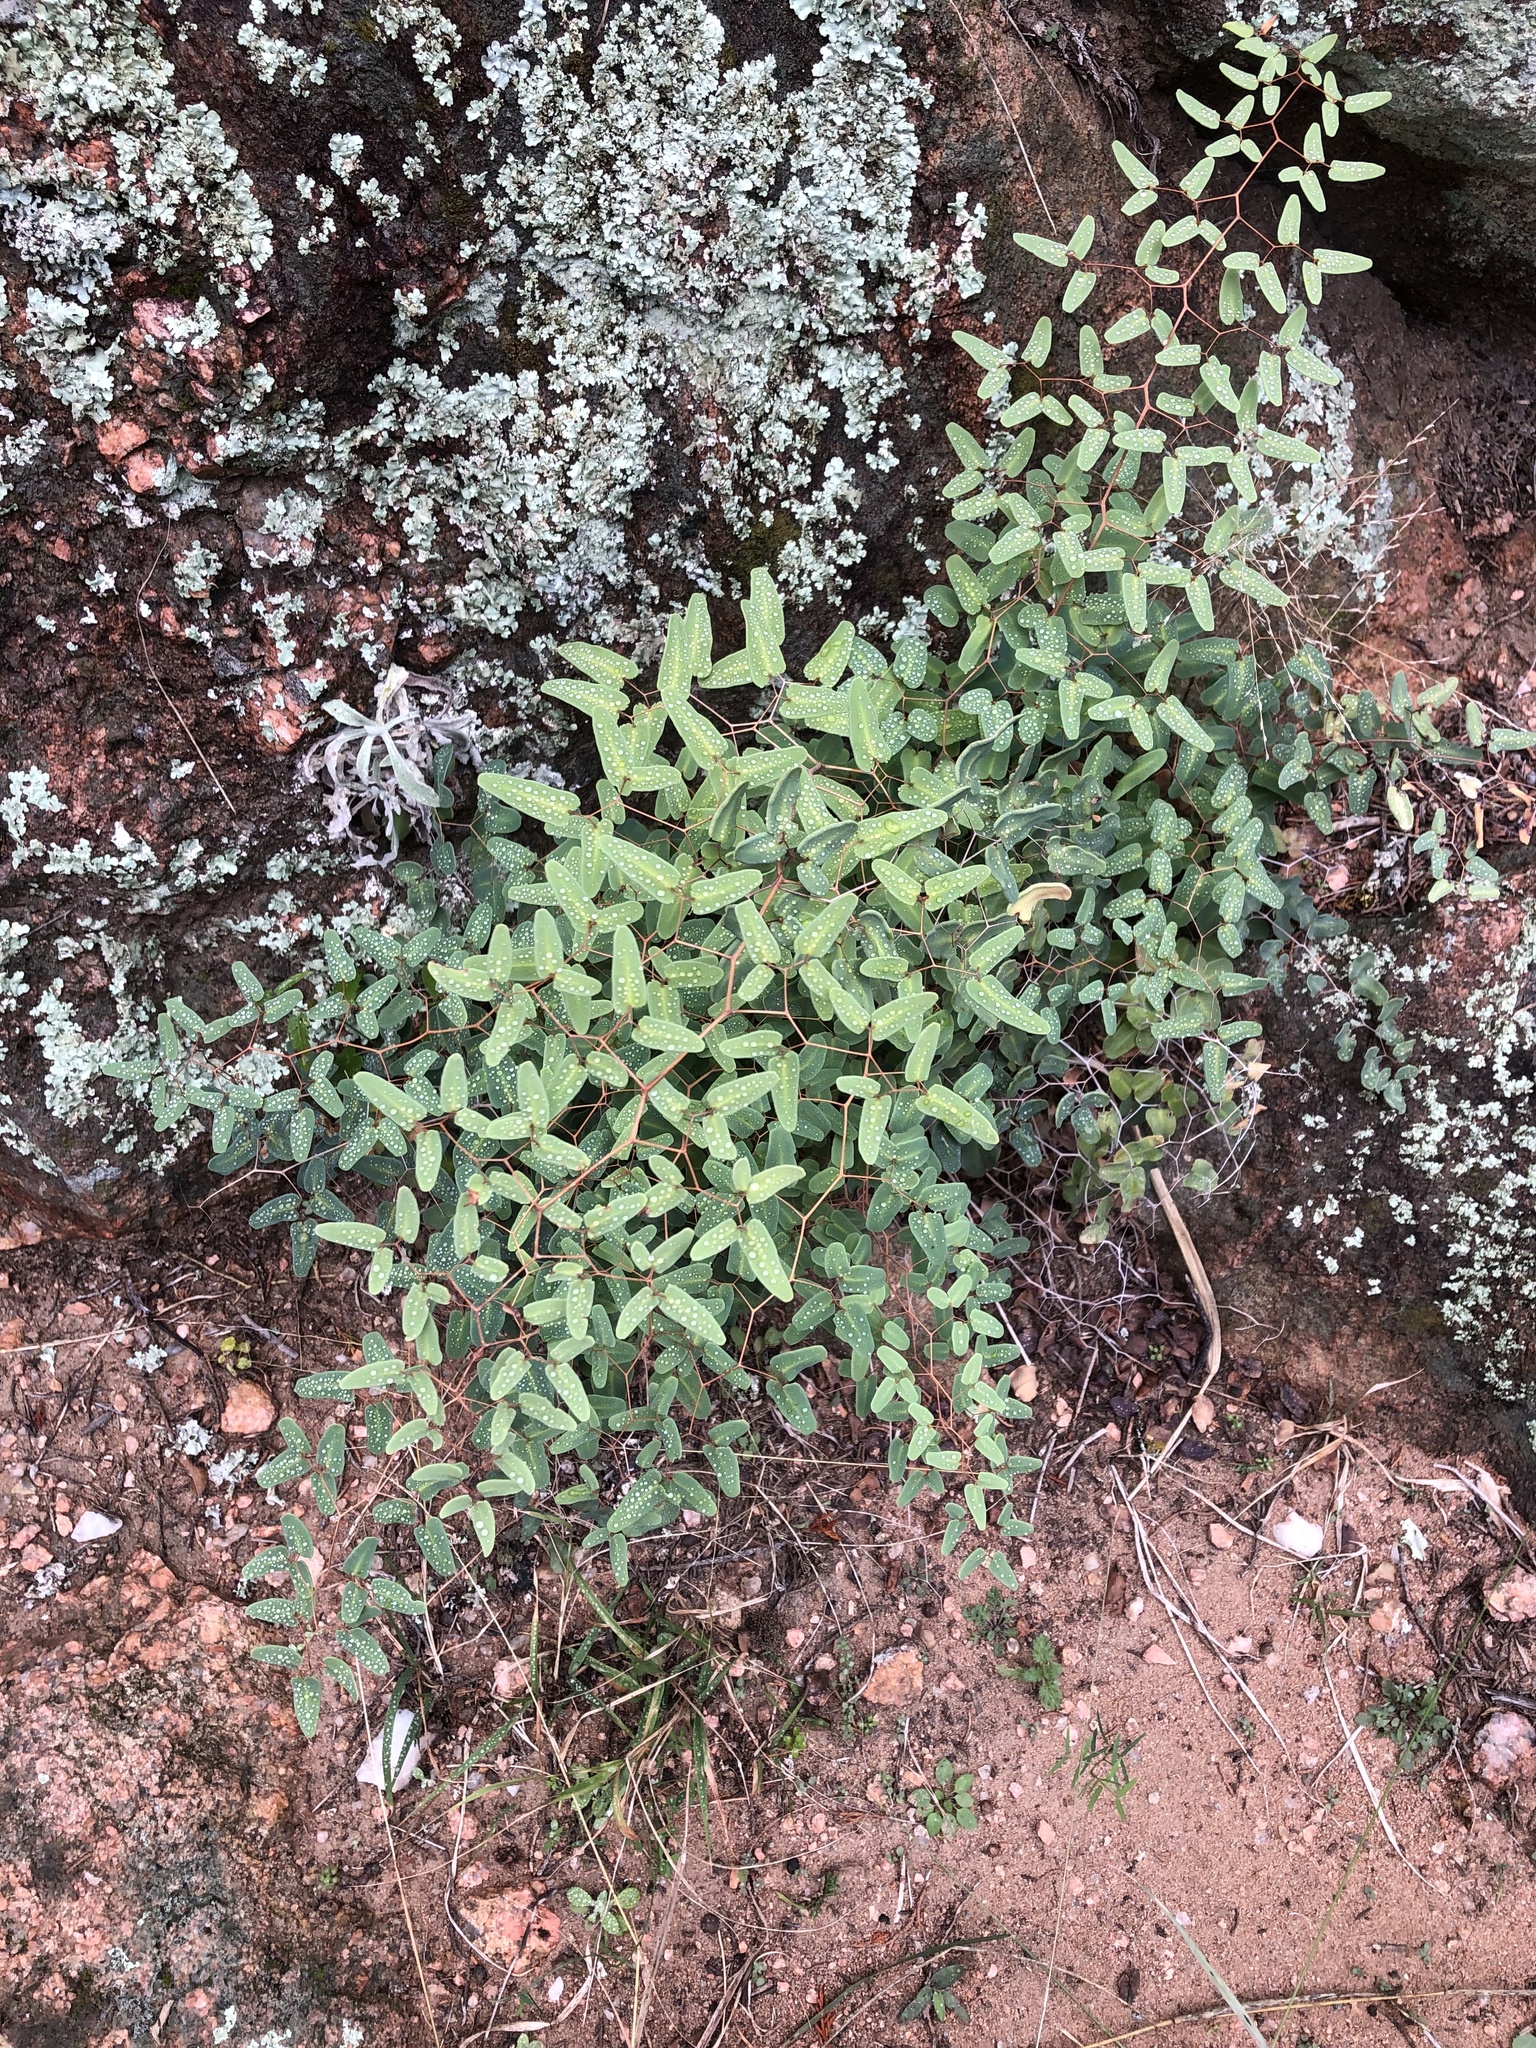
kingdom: Plantae
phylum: Tracheophyta
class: Polypodiopsida
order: Polypodiales
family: Pteridaceae
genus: Pellaea
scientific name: Pellaea ovata
